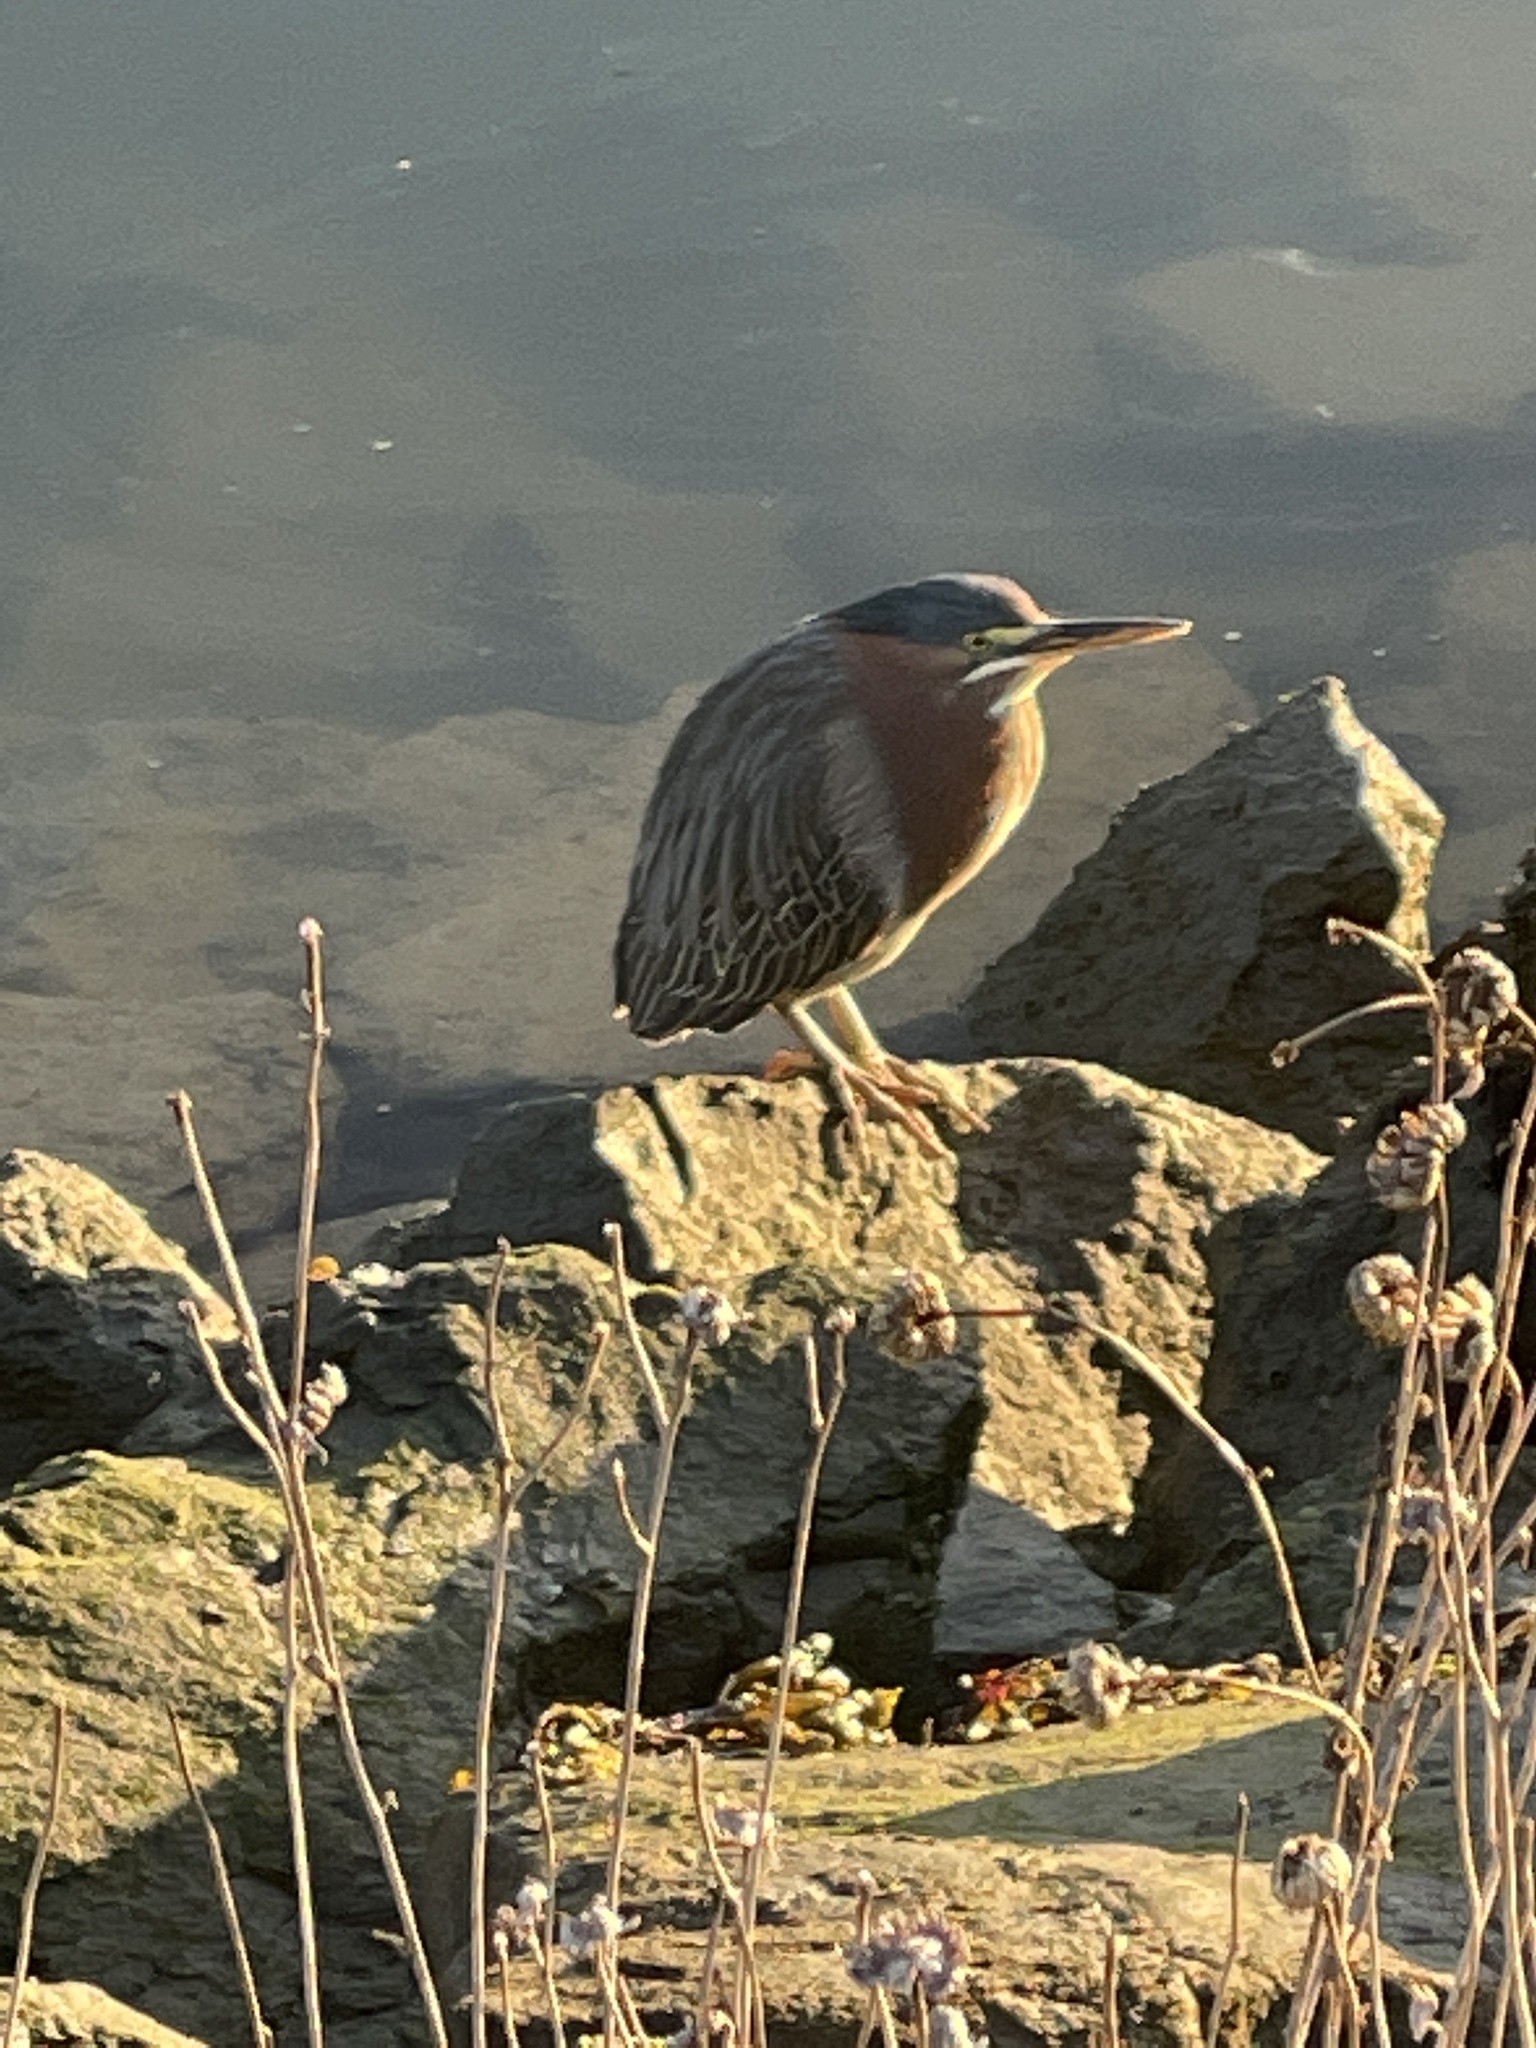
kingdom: Animalia
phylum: Chordata
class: Aves
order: Pelecaniformes
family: Ardeidae
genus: Butorides
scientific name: Butorides virescens
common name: Green heron
